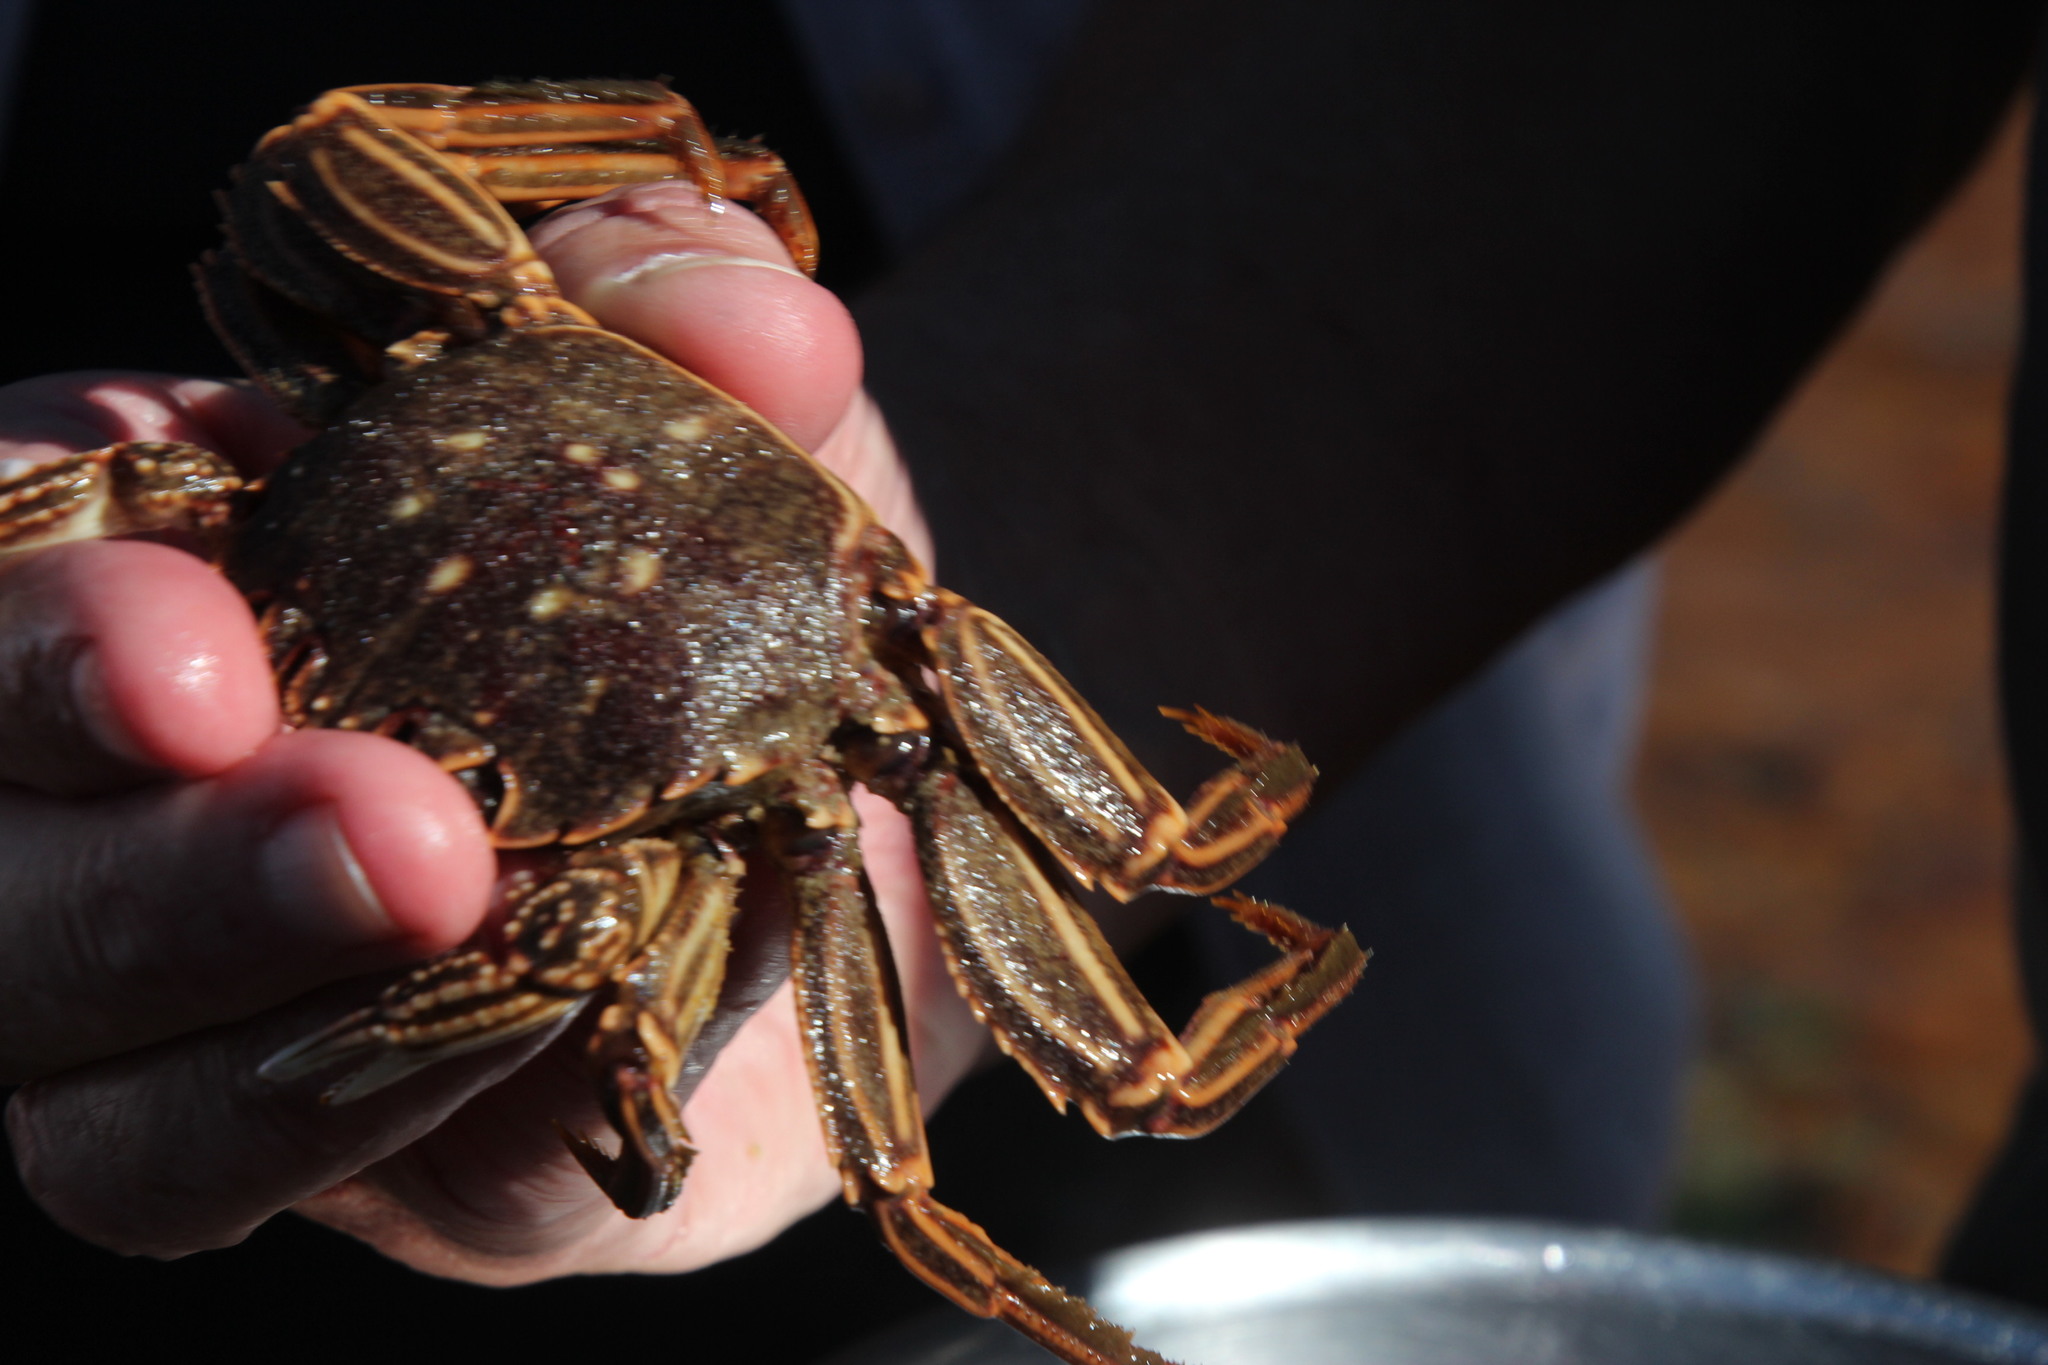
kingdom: Animalia
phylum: Arthropoda
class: Malacostraca
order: Decapoda
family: Plagusiidae
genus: Guinusia
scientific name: Guinusia chabrus
